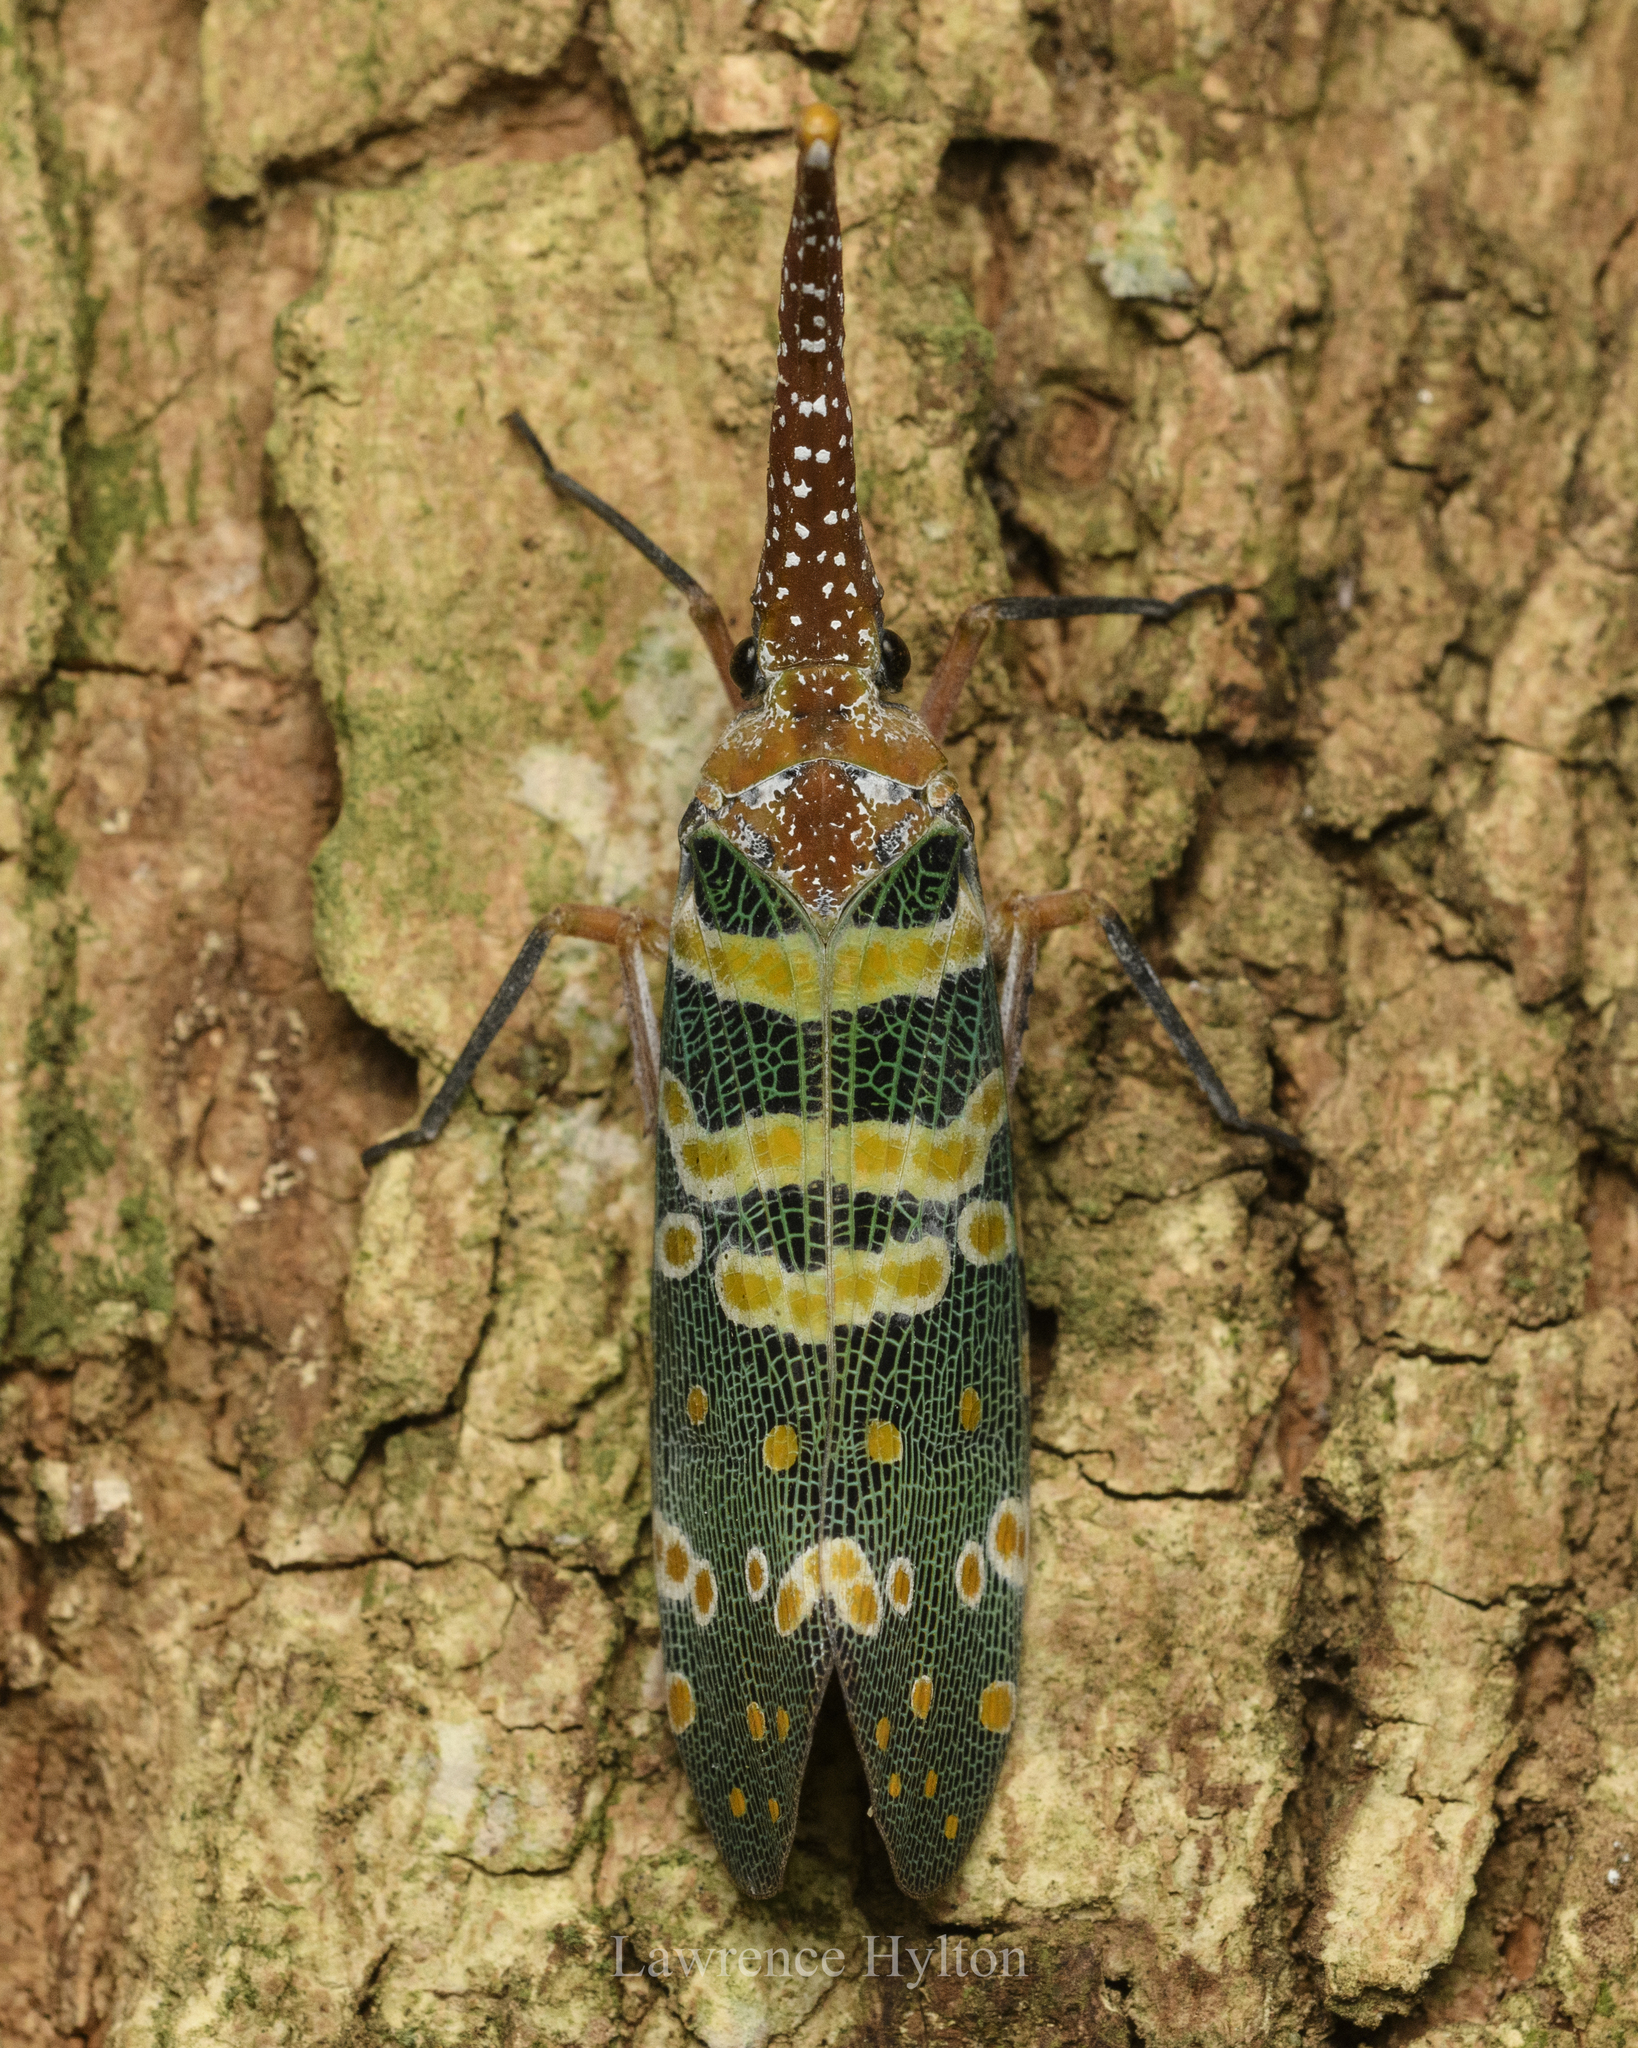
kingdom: Animalia
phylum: Arthropoda
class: Insecta
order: Hemiptera
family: Fulgoridae
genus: Pyrops
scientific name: Pyrops candelaria
